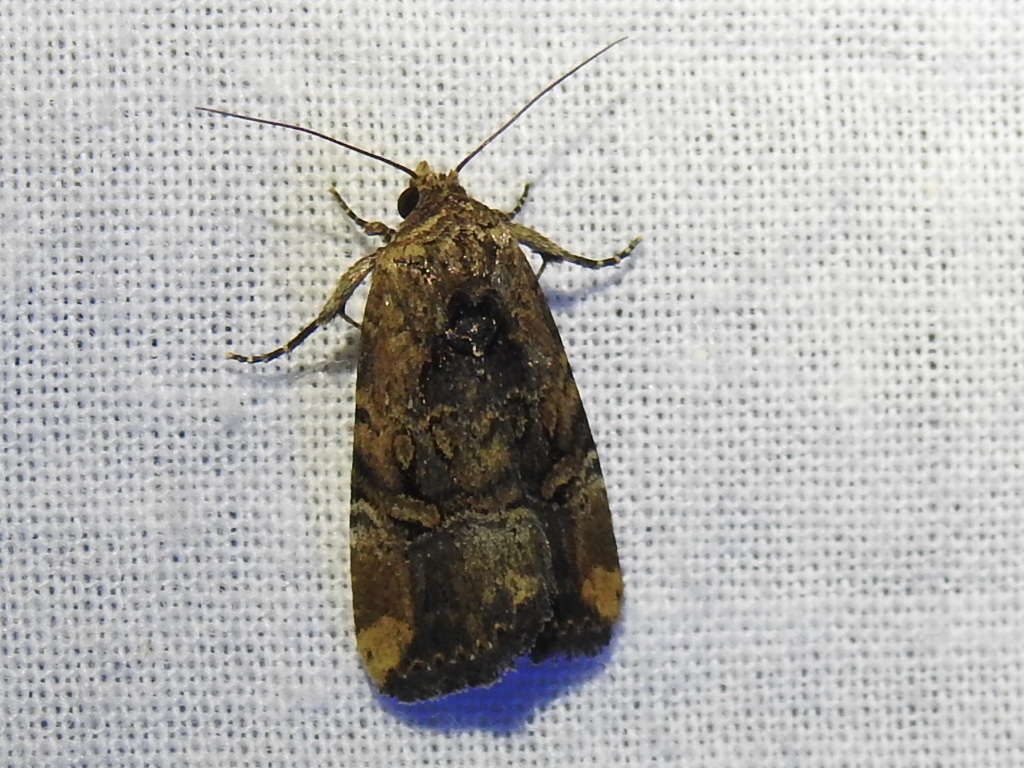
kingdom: Animalia
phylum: Arthropoda
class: Insecta
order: Lepidoptera
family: Noctuidae
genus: Elaphria
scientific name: Elaphria chalcedonia
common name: Chalcedony midget
